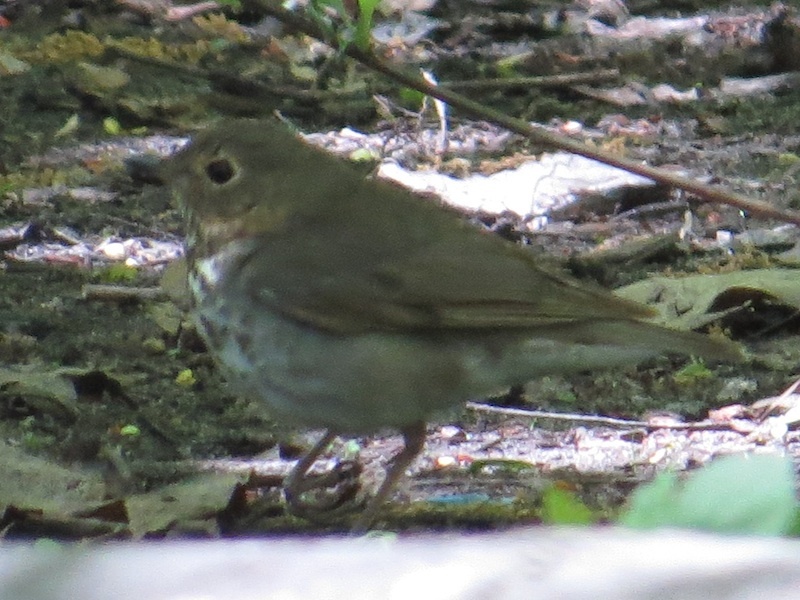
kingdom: Animalia
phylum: Chordata
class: Aves
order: Passeriformes
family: Turdidae
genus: Catharus
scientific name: Catharus ustulatus
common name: Swainson's thrush
